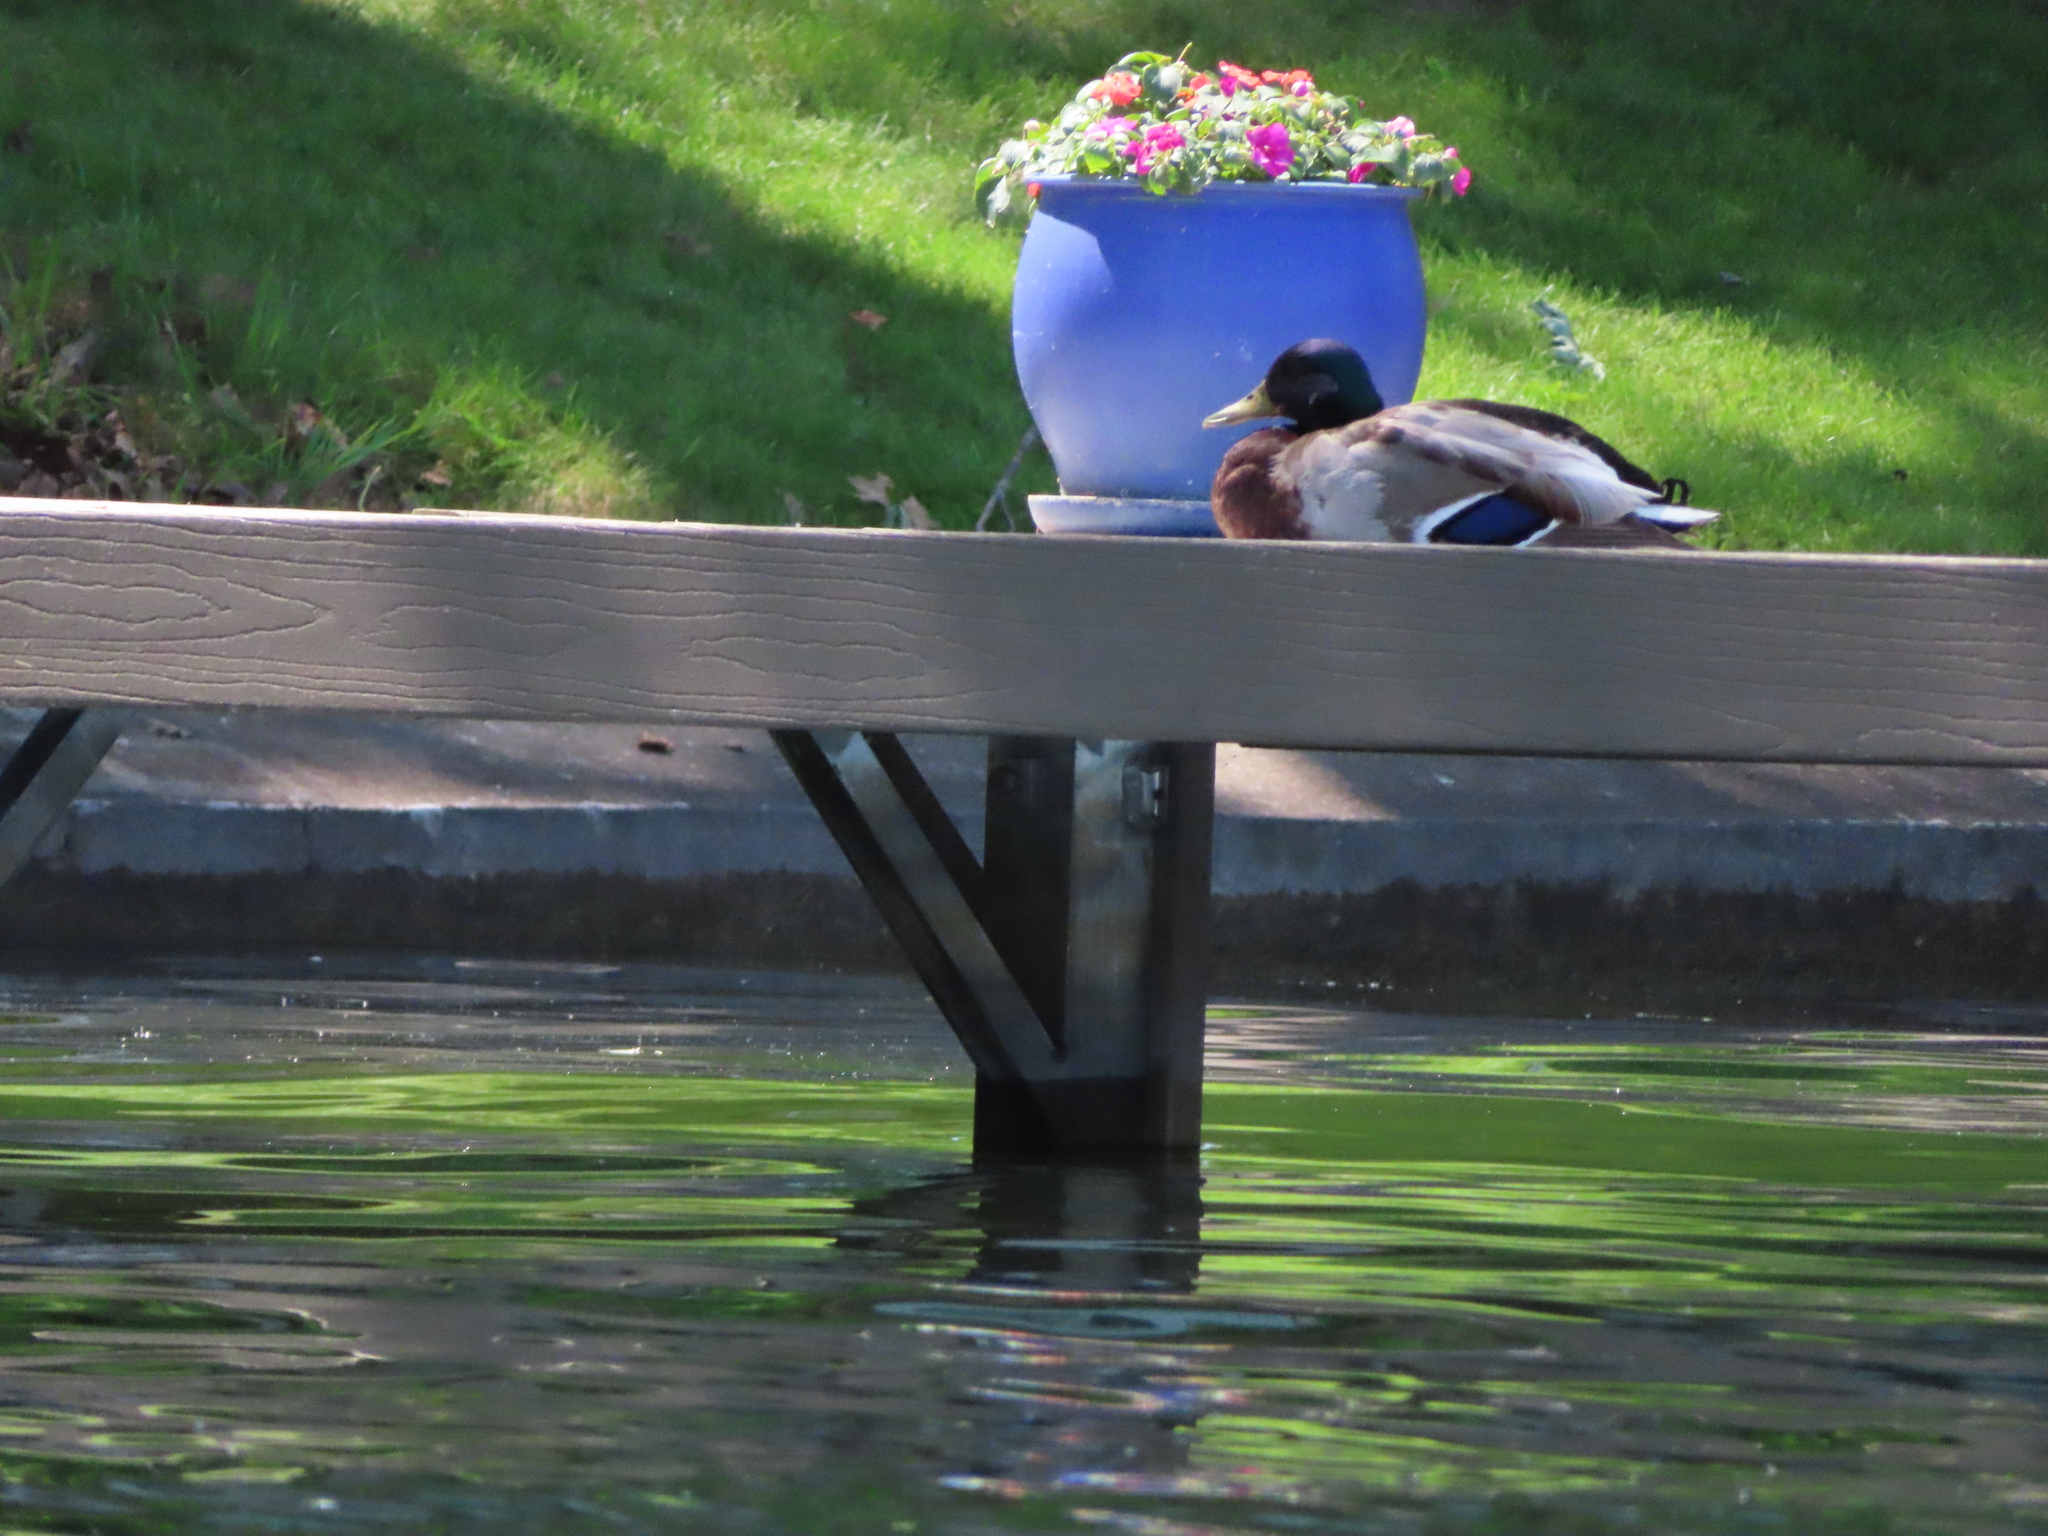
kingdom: Animalia
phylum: Chordata
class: Aves
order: Anseriformes
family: Anatidae
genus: Anas
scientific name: Anas platyrhynchos
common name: Mallard
